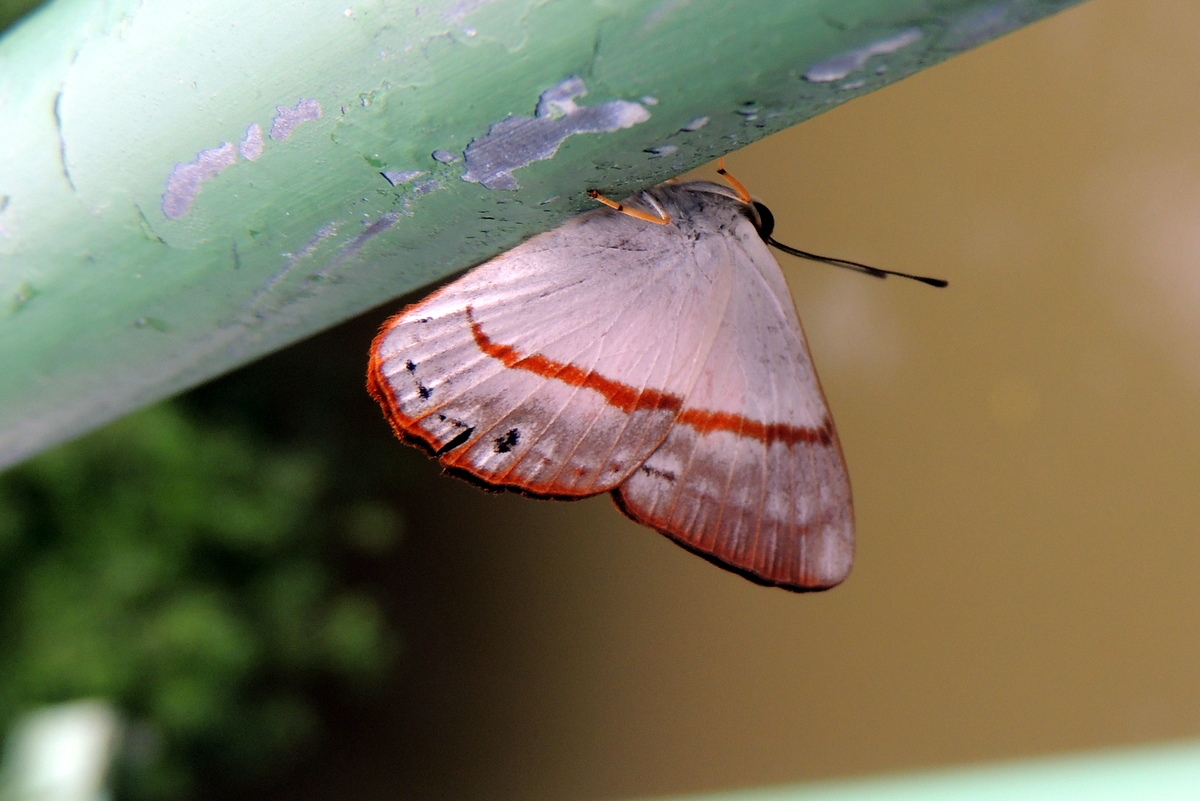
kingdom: Animalia
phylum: Arthropoda
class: Insecta
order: Lepidoptera
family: Lycaenidae
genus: Euselasia
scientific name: Euselasia
